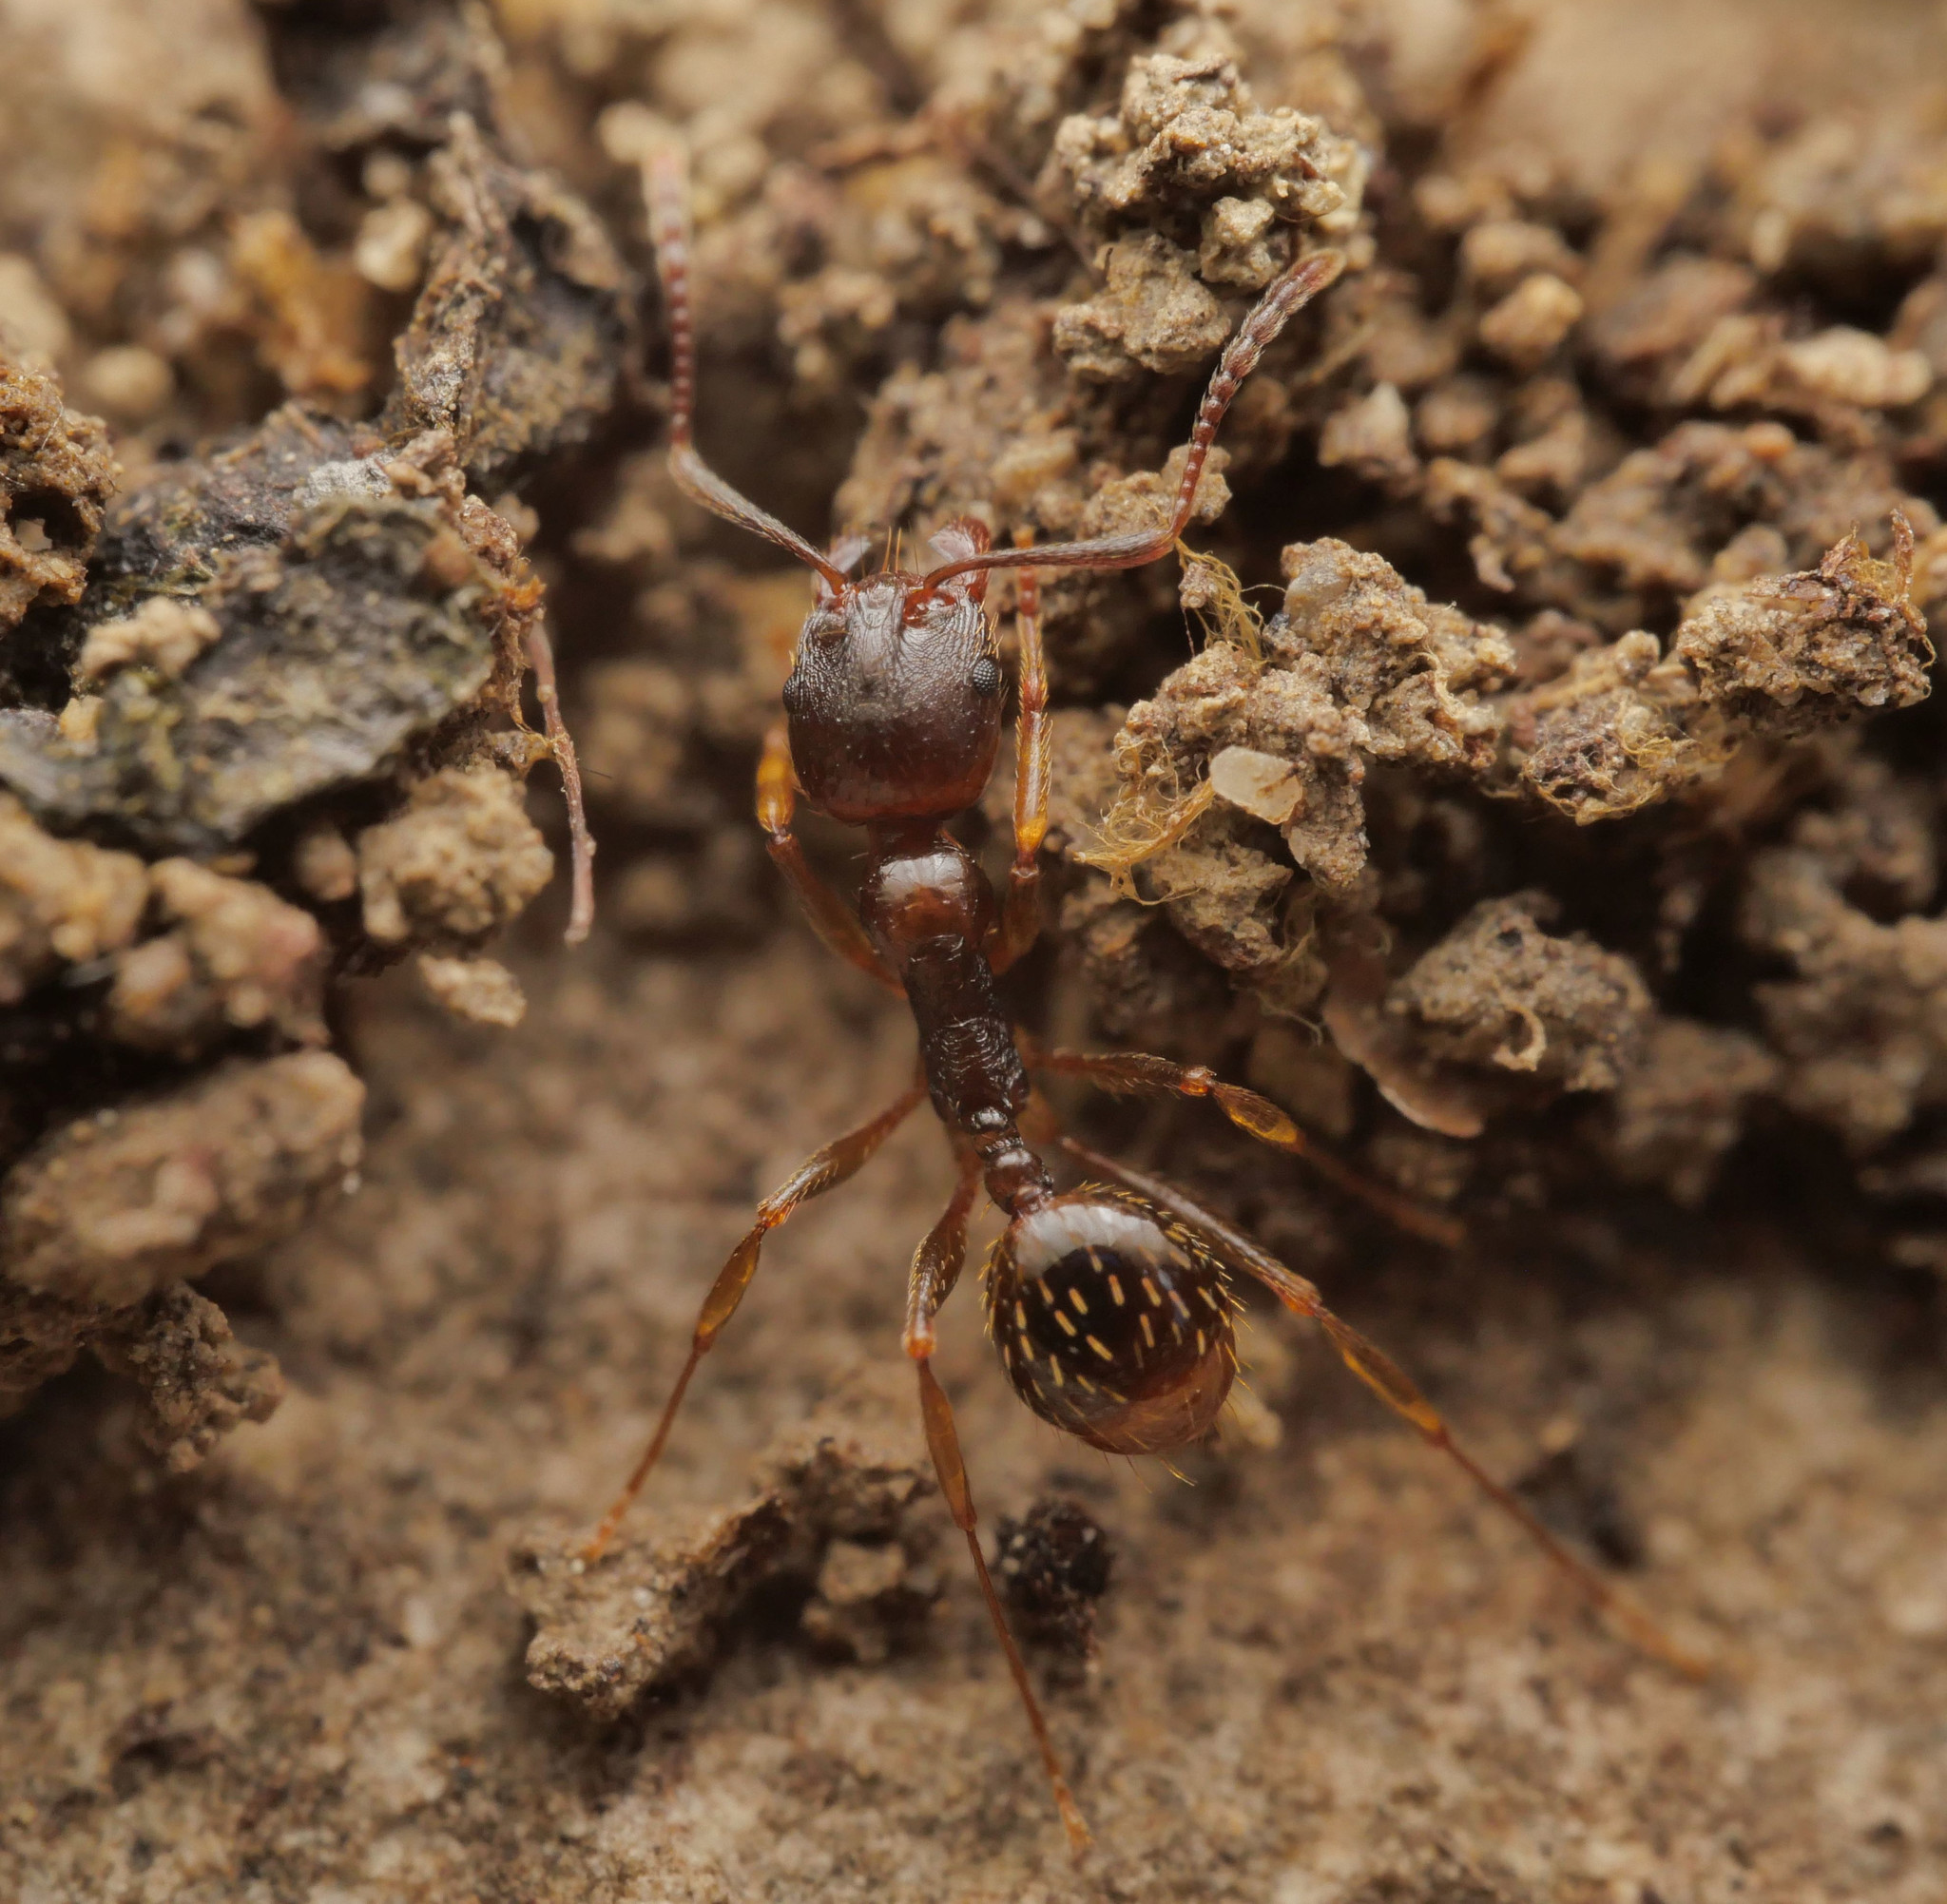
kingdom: Animalia
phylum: Arthropoda
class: Insecta
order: Hymenoptera
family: Formicidae
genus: Aphaenogaster
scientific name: Aphaenogaster subterranea
